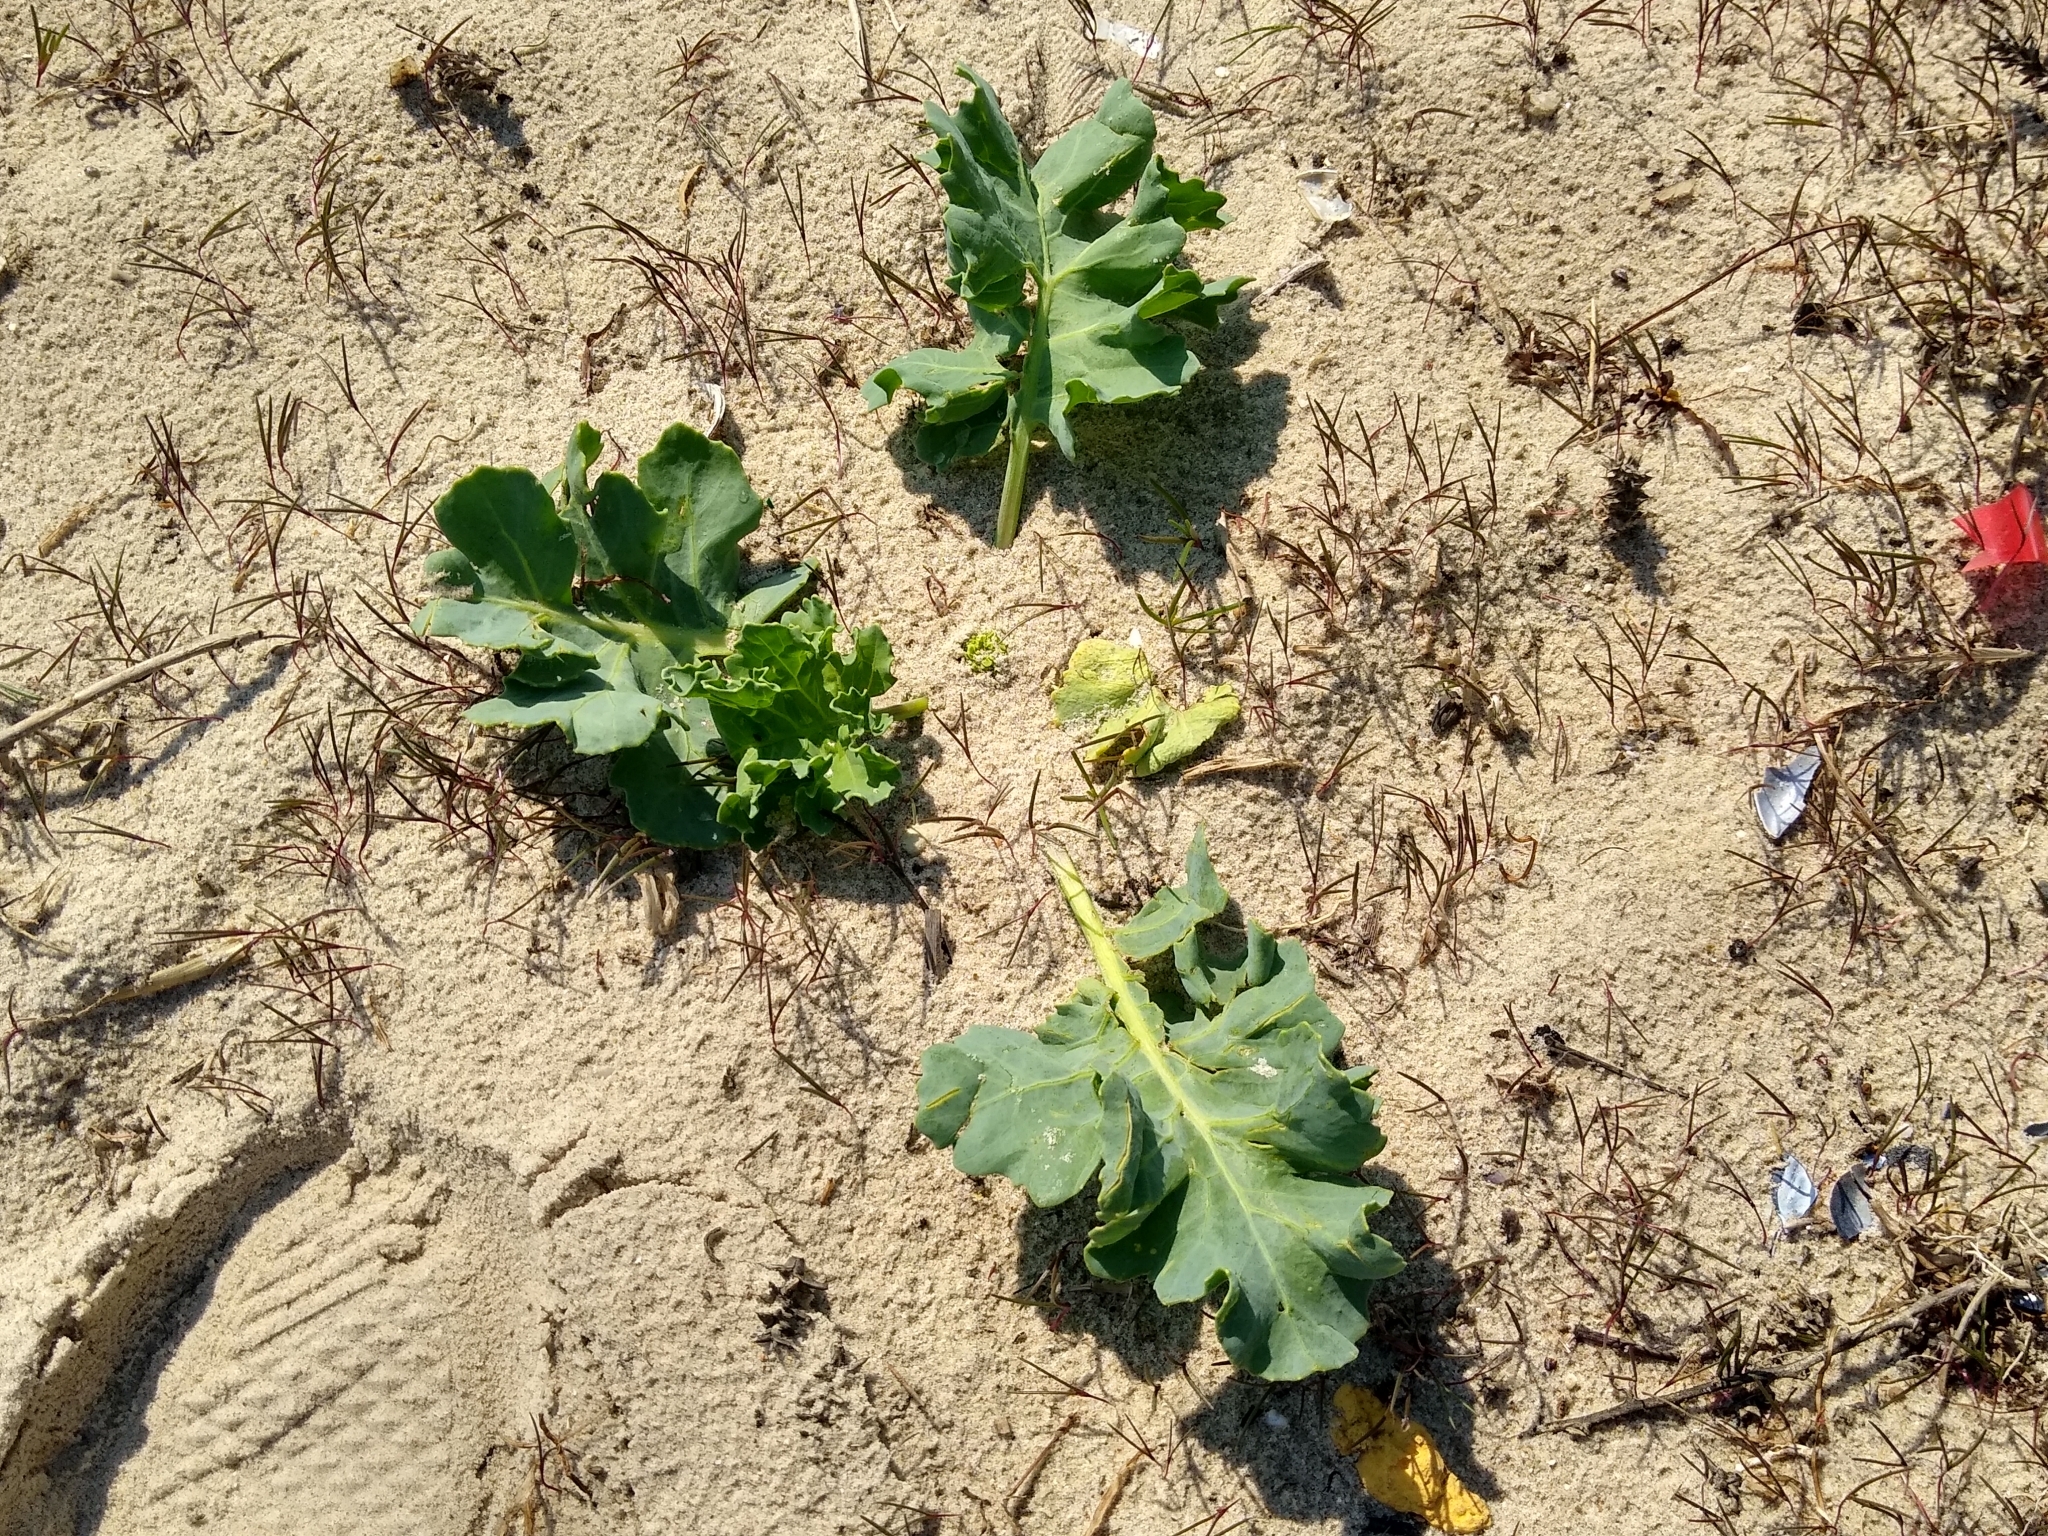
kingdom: Plantae
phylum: Tracheophyta
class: Magnoliopsida
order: Brassicales
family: Brassicaceae
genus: Crambe
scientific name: Crambe maritima
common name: Sea-kale
